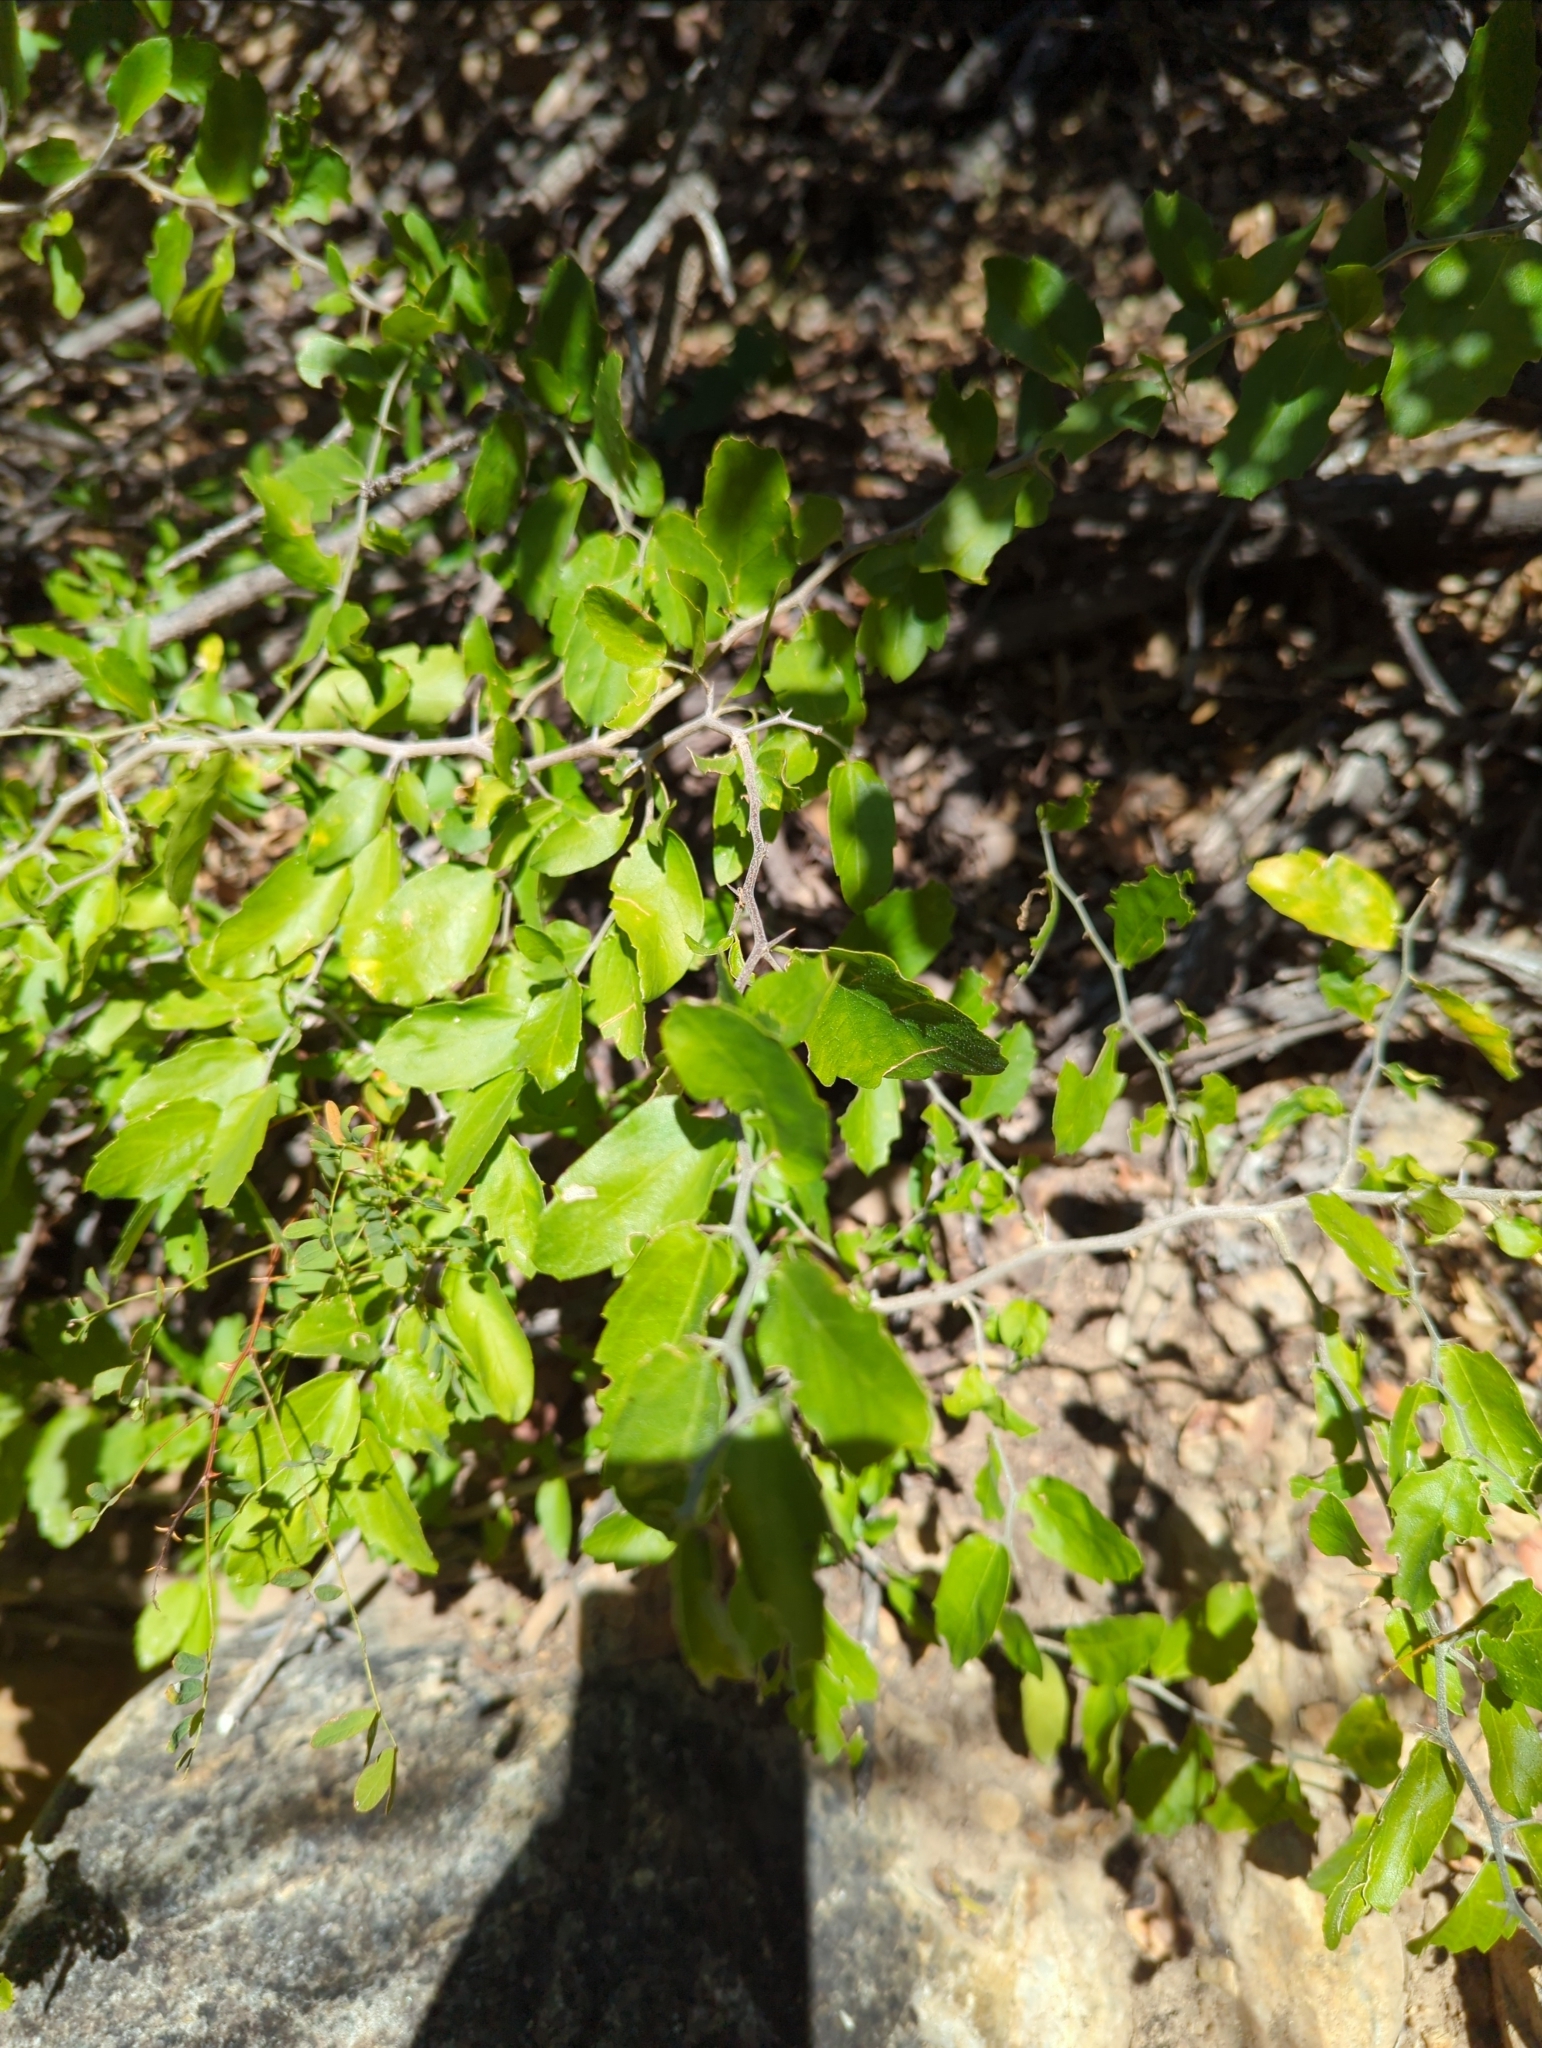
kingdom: Plantae
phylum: Tracheophyta
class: Magnoliopsida
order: Rosales
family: Cannabaceae
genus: Celtis
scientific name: Celtis pallida
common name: Desert hackberry
